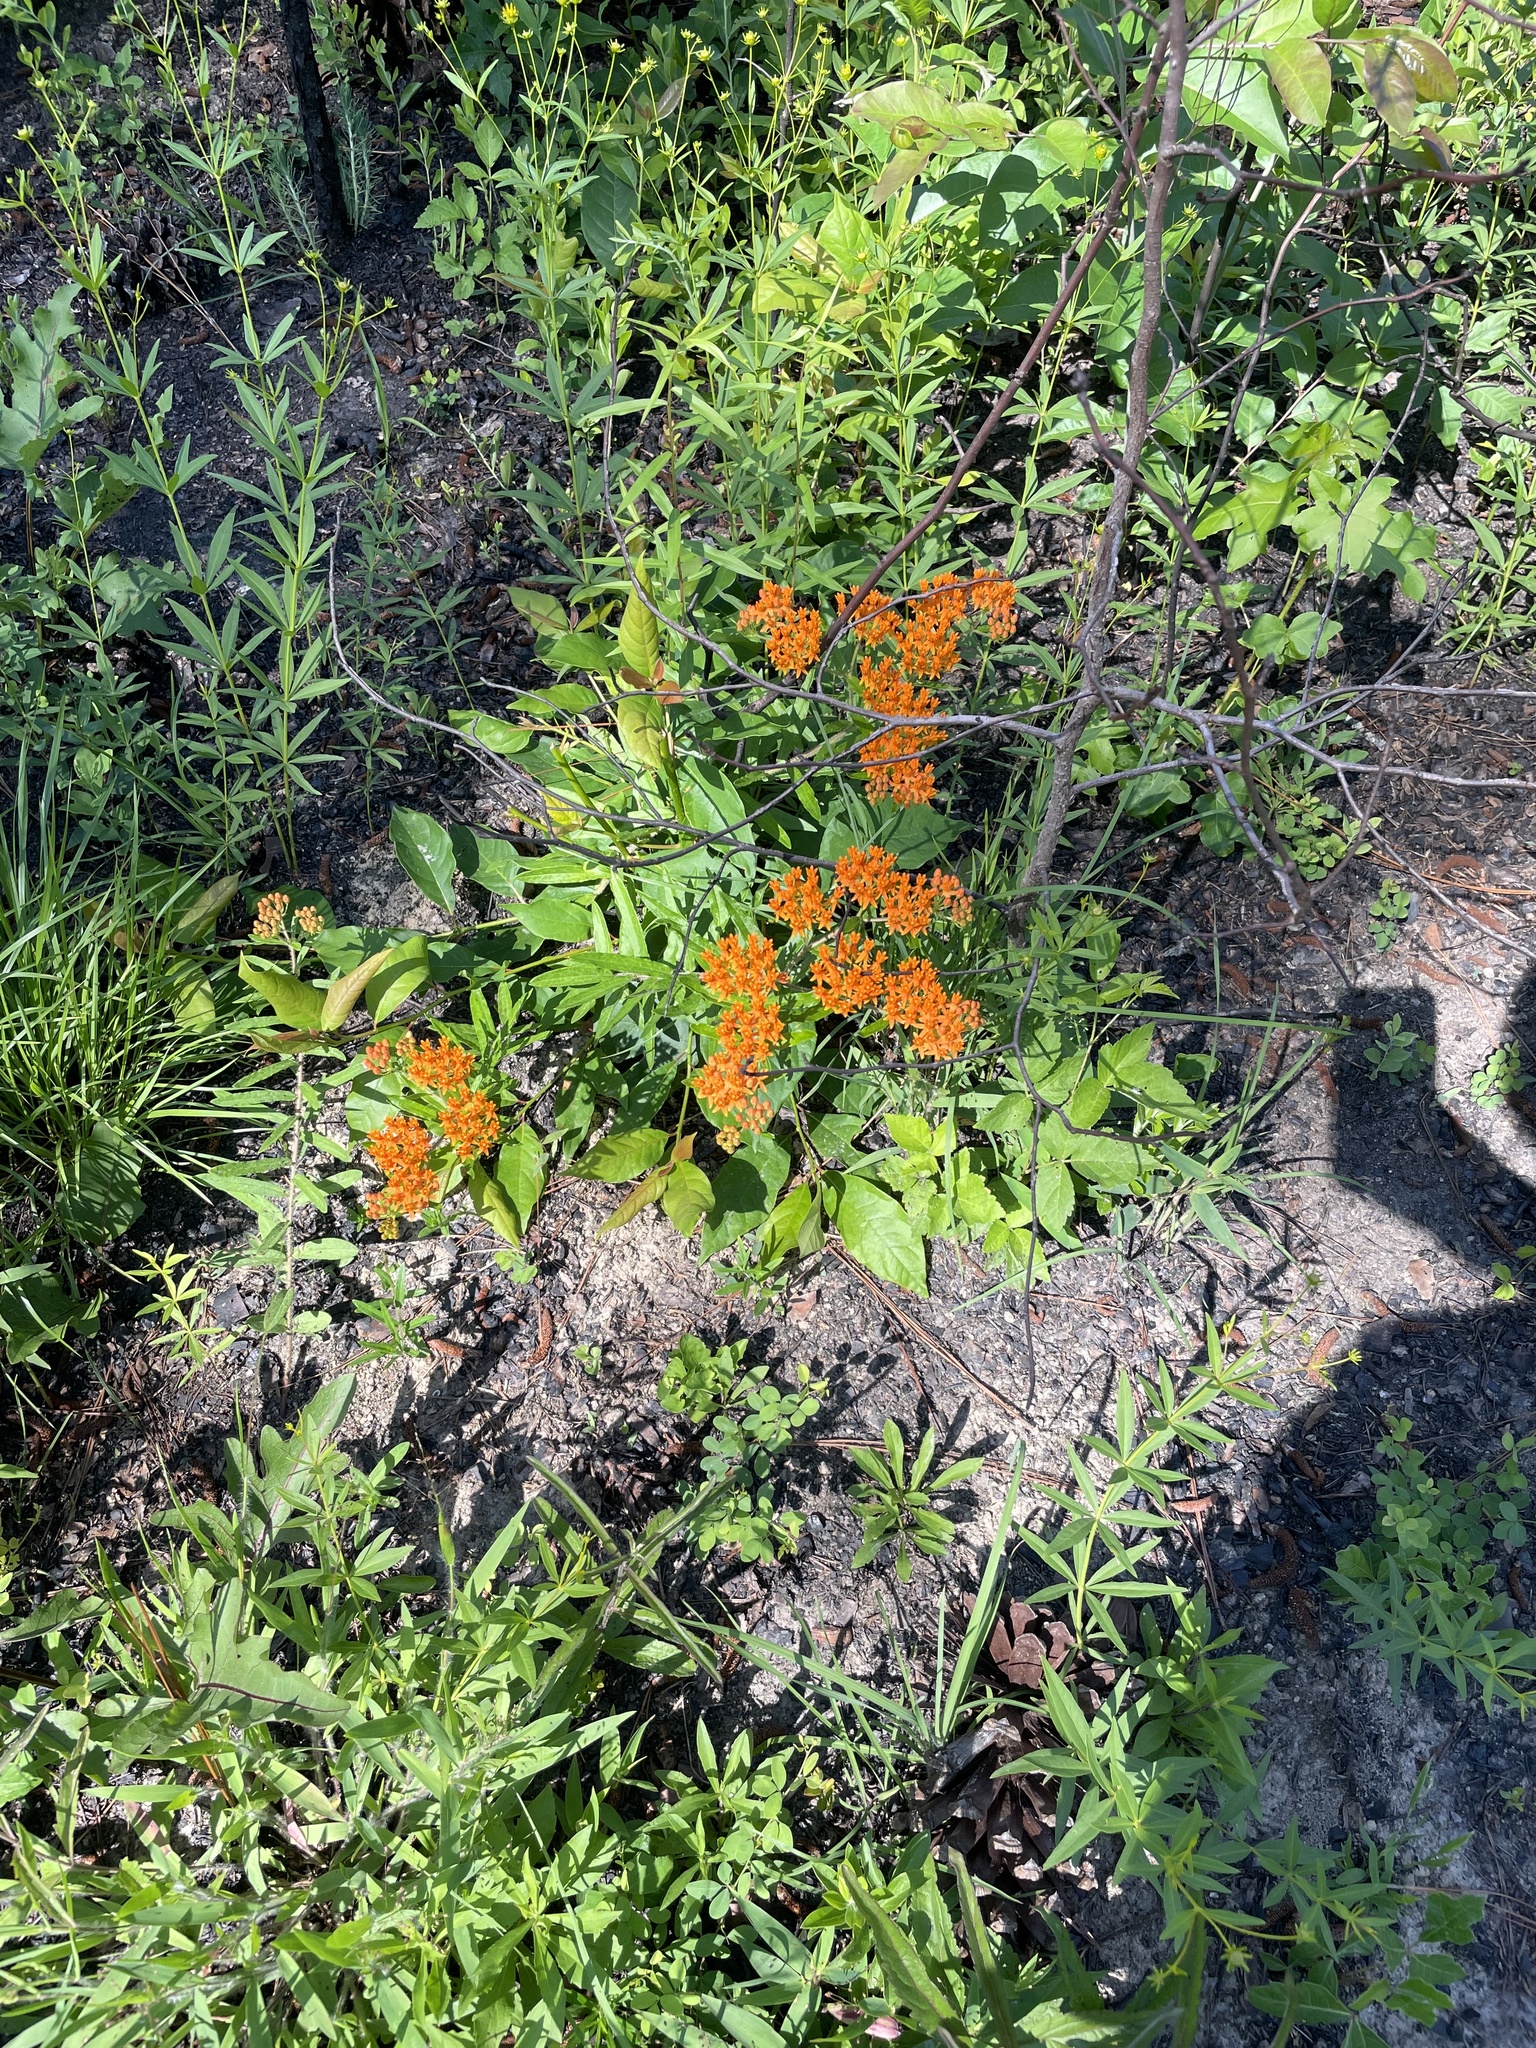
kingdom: Plantae
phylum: Tracheophyta
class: Magnoliopsida
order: Gentianales
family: Apocynaceae
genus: Asclepias
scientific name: Asclepias tuberosa
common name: Butterfly milkweed
